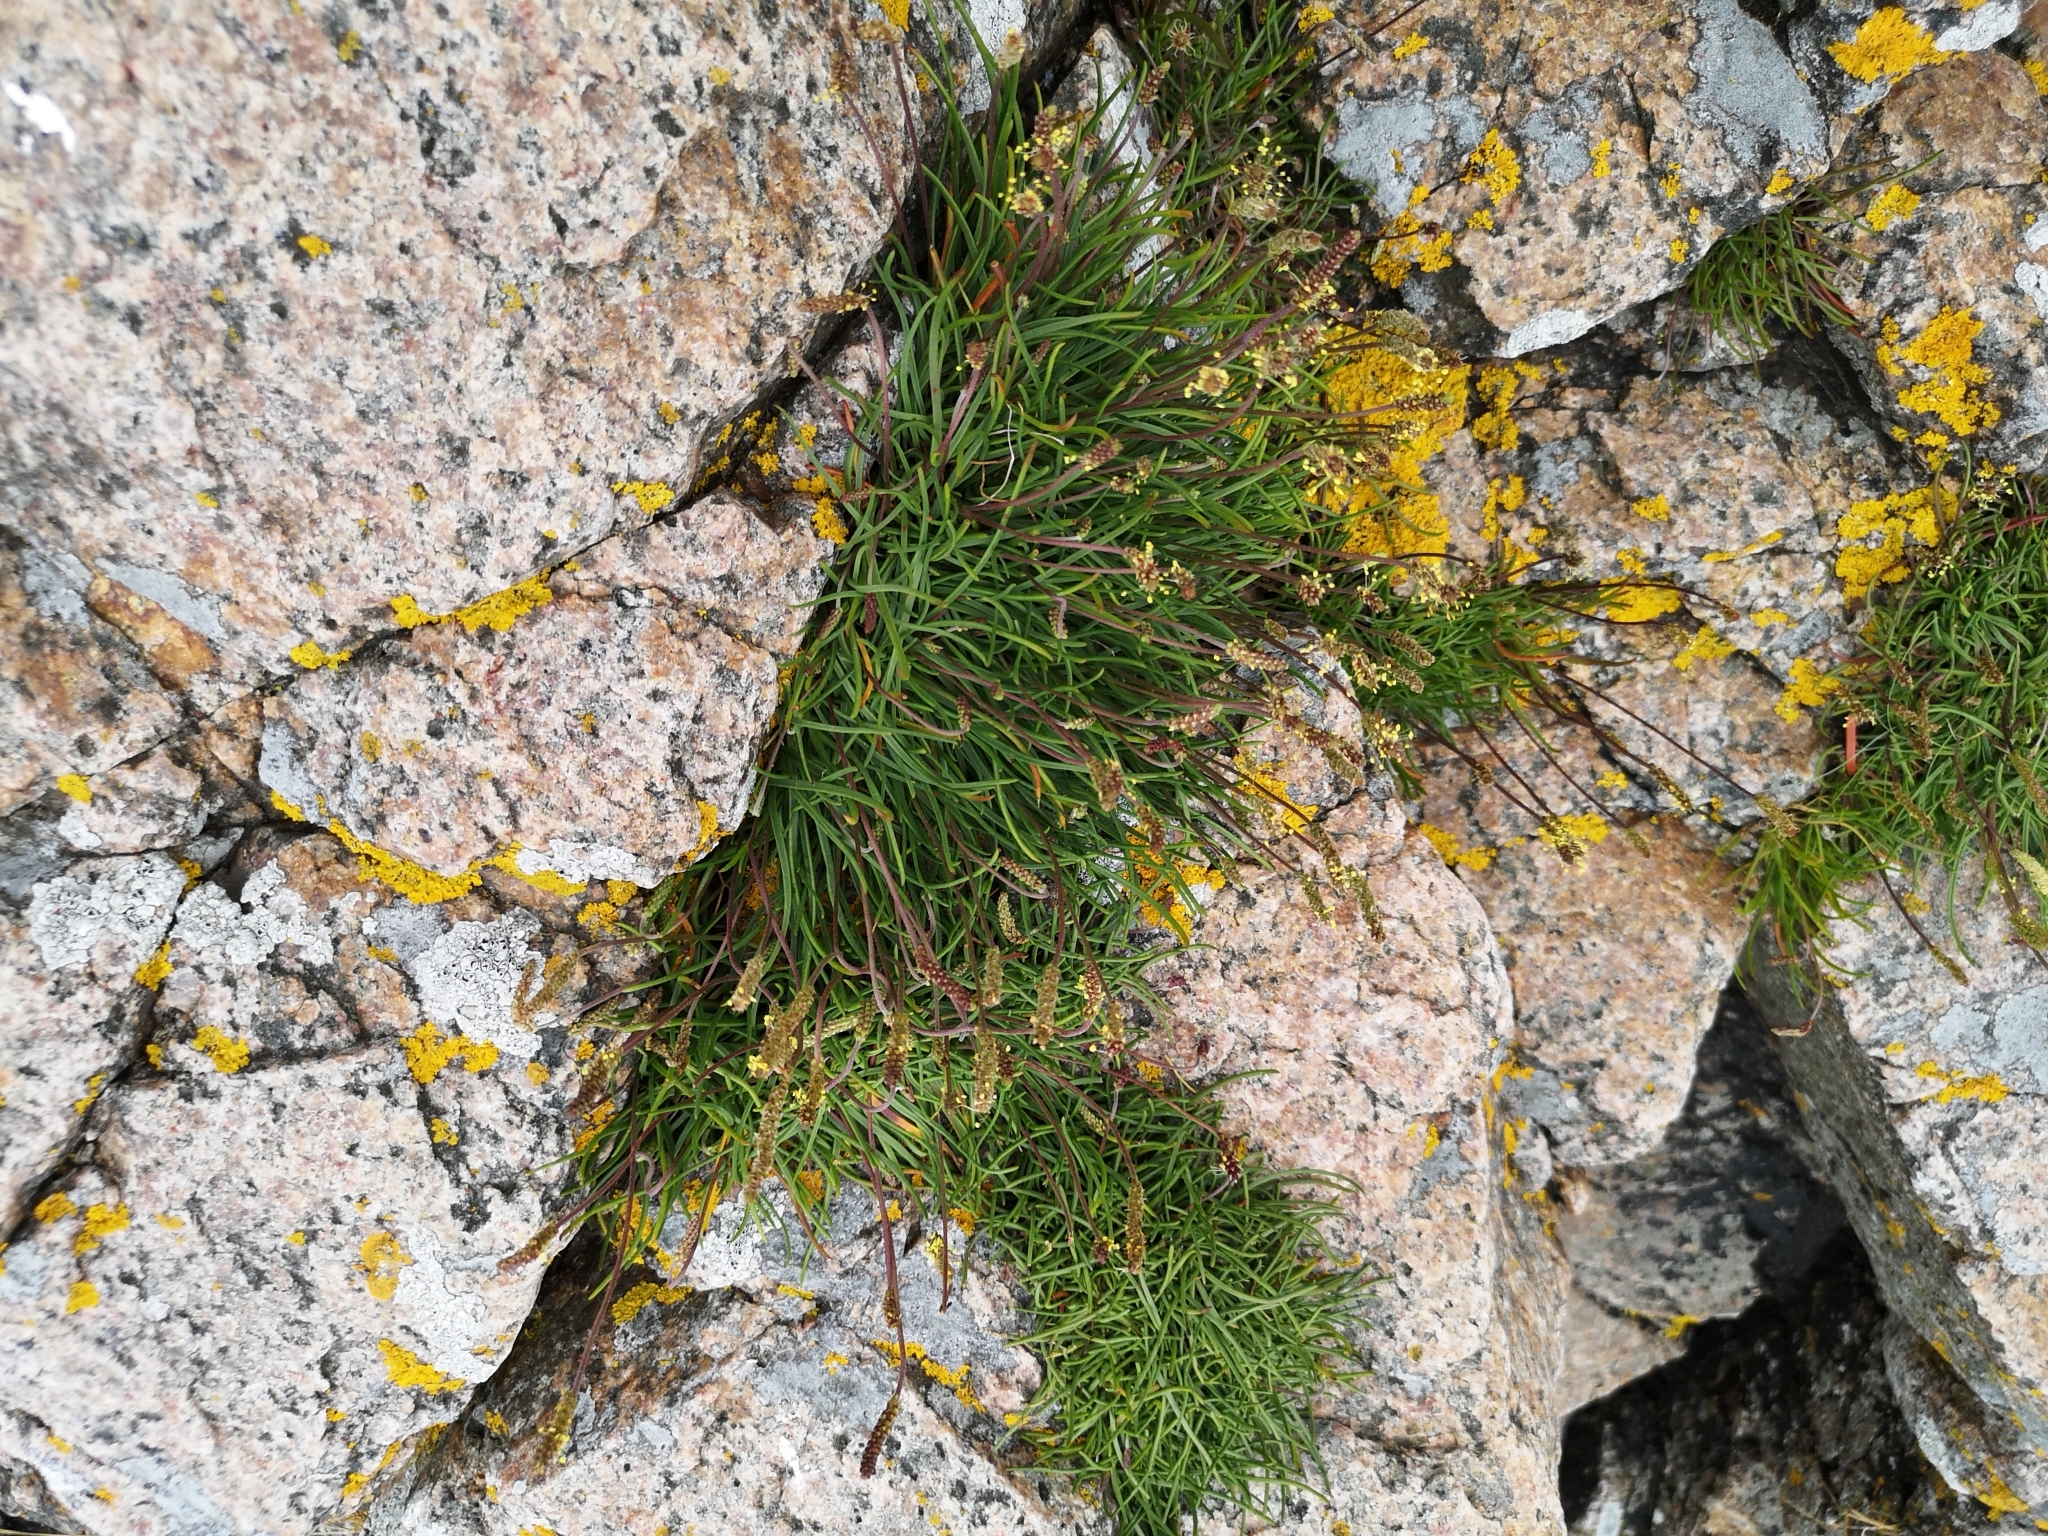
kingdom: Plantae
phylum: Tracheophyta
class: Magnoliopsida
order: Lamiales
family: Plantaginaceae
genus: Plantago
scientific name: Plantago maritima
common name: Sea plantain
